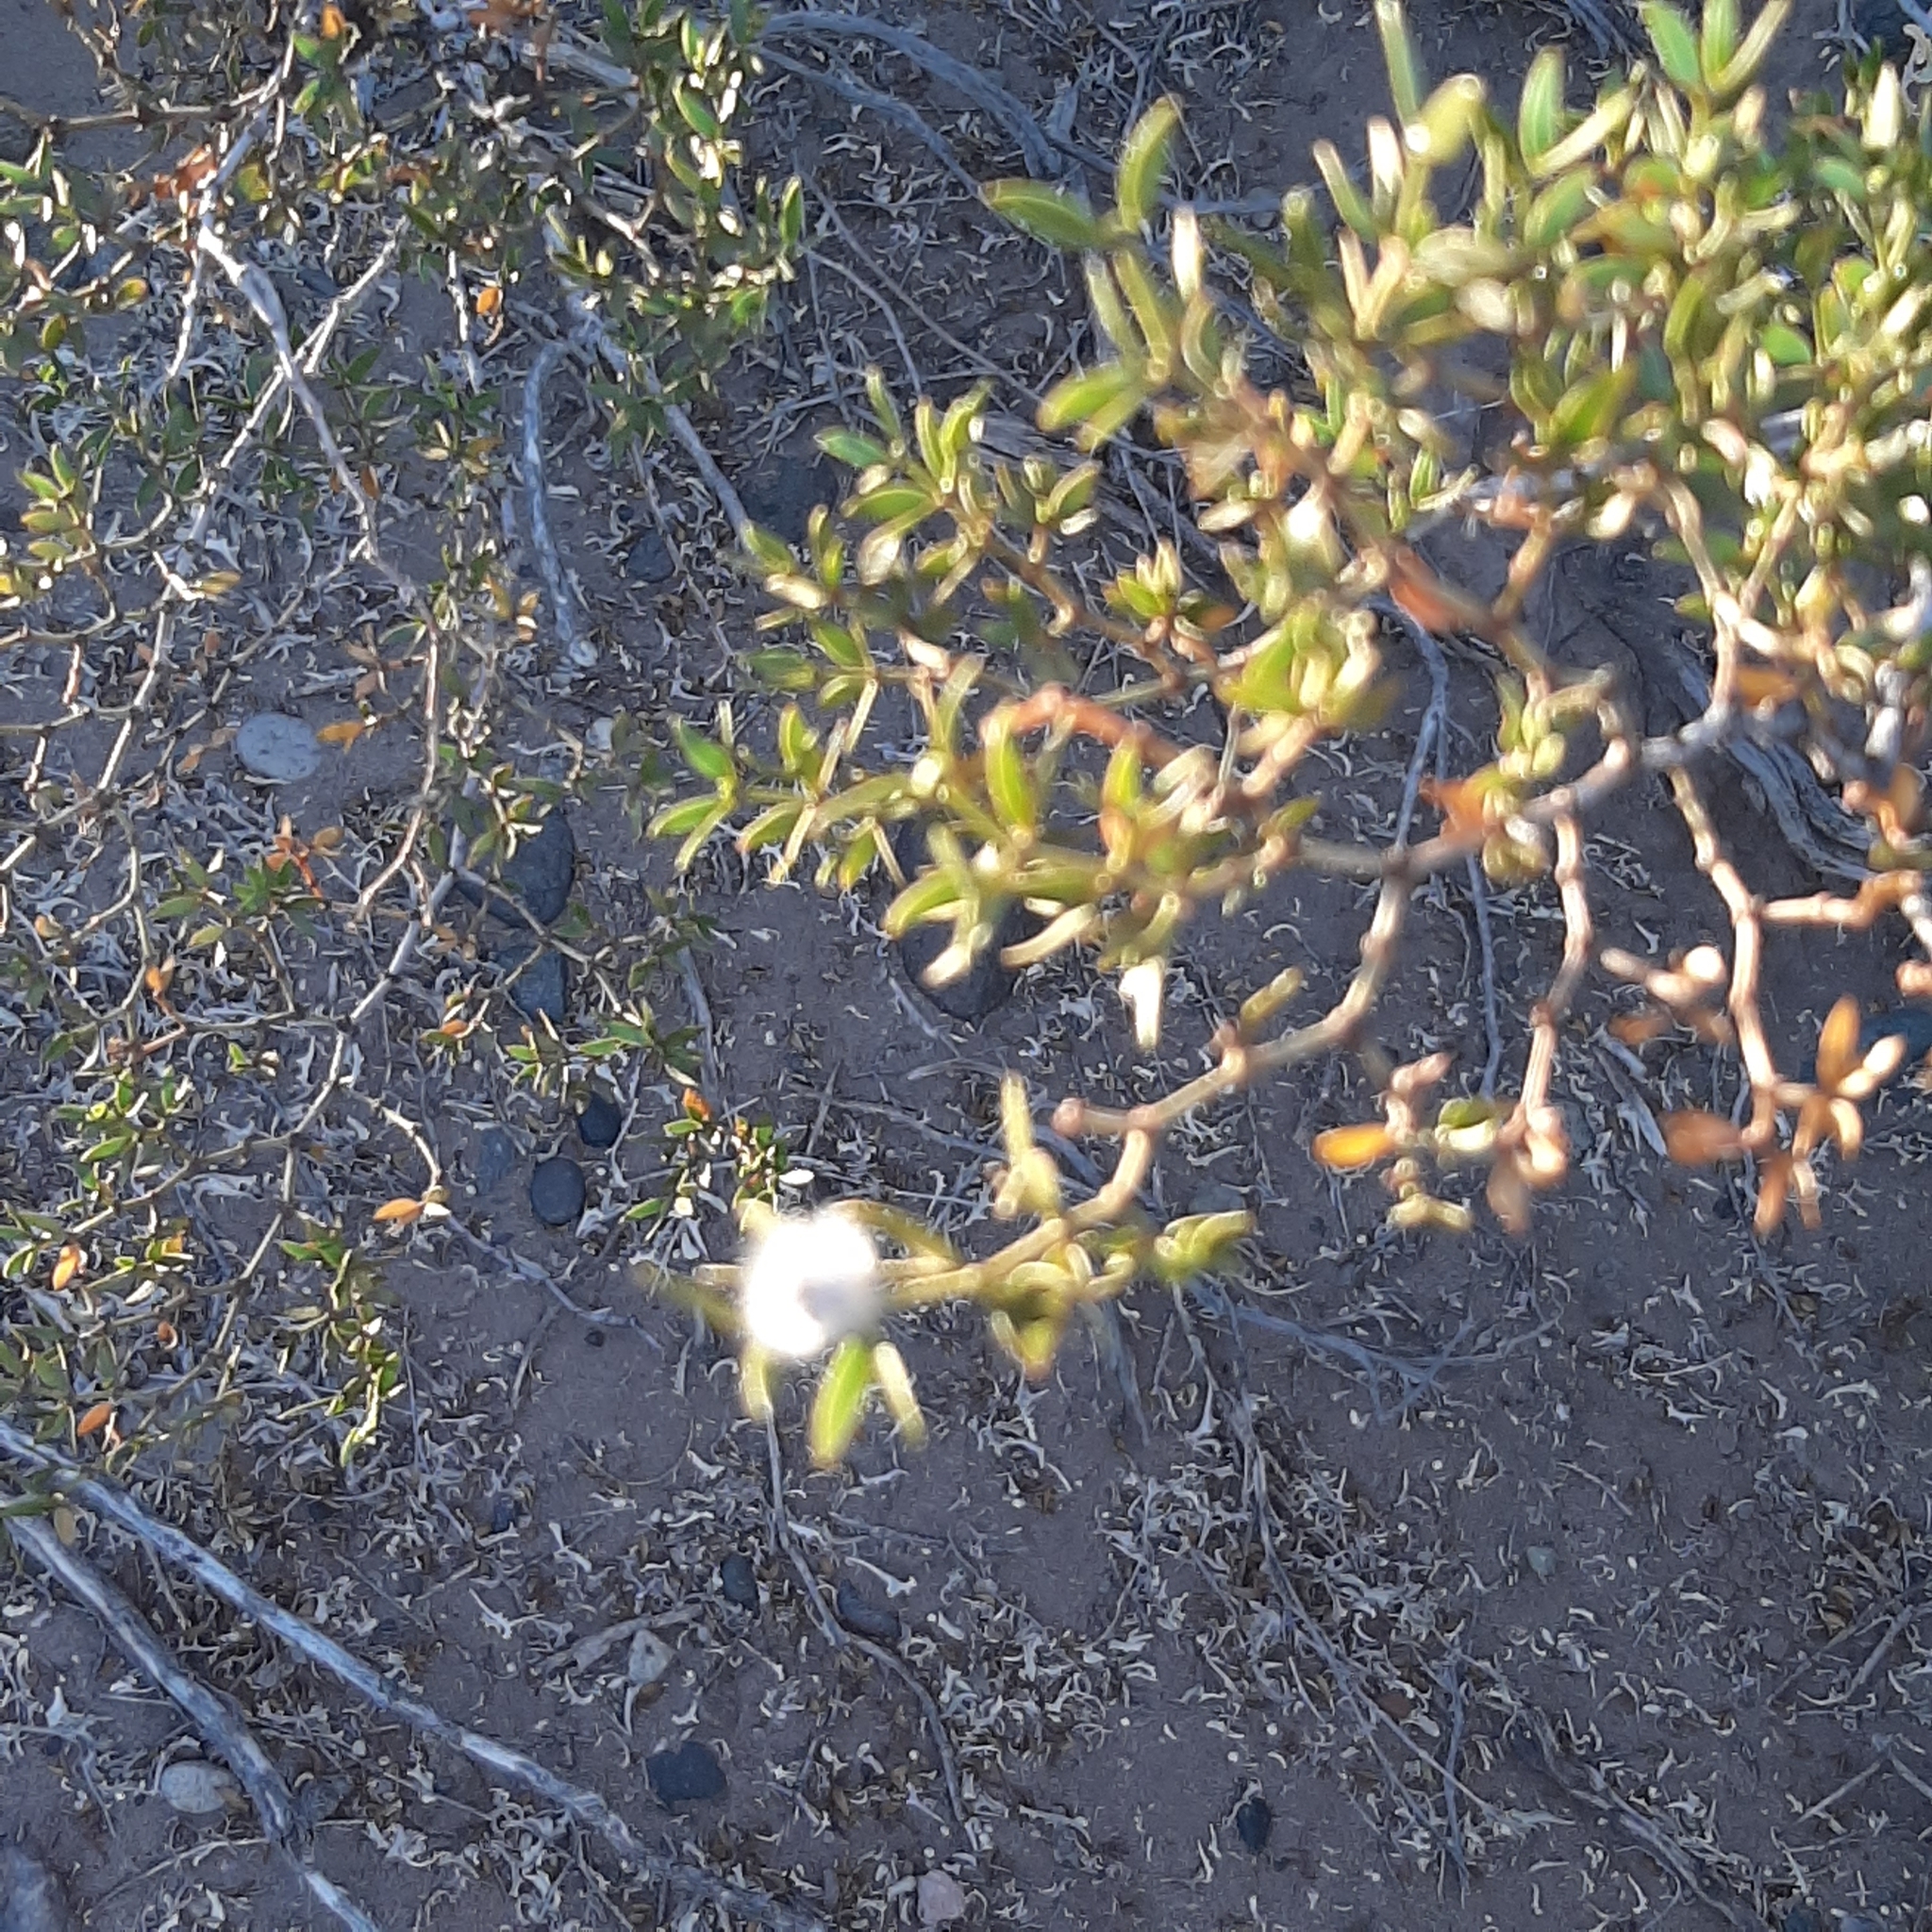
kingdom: Plantae
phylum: Tracheophyta
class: Magnoliopsida
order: Zygophyllales
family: Zygophyllaceae
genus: Larrea
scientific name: Larrea divaricata
